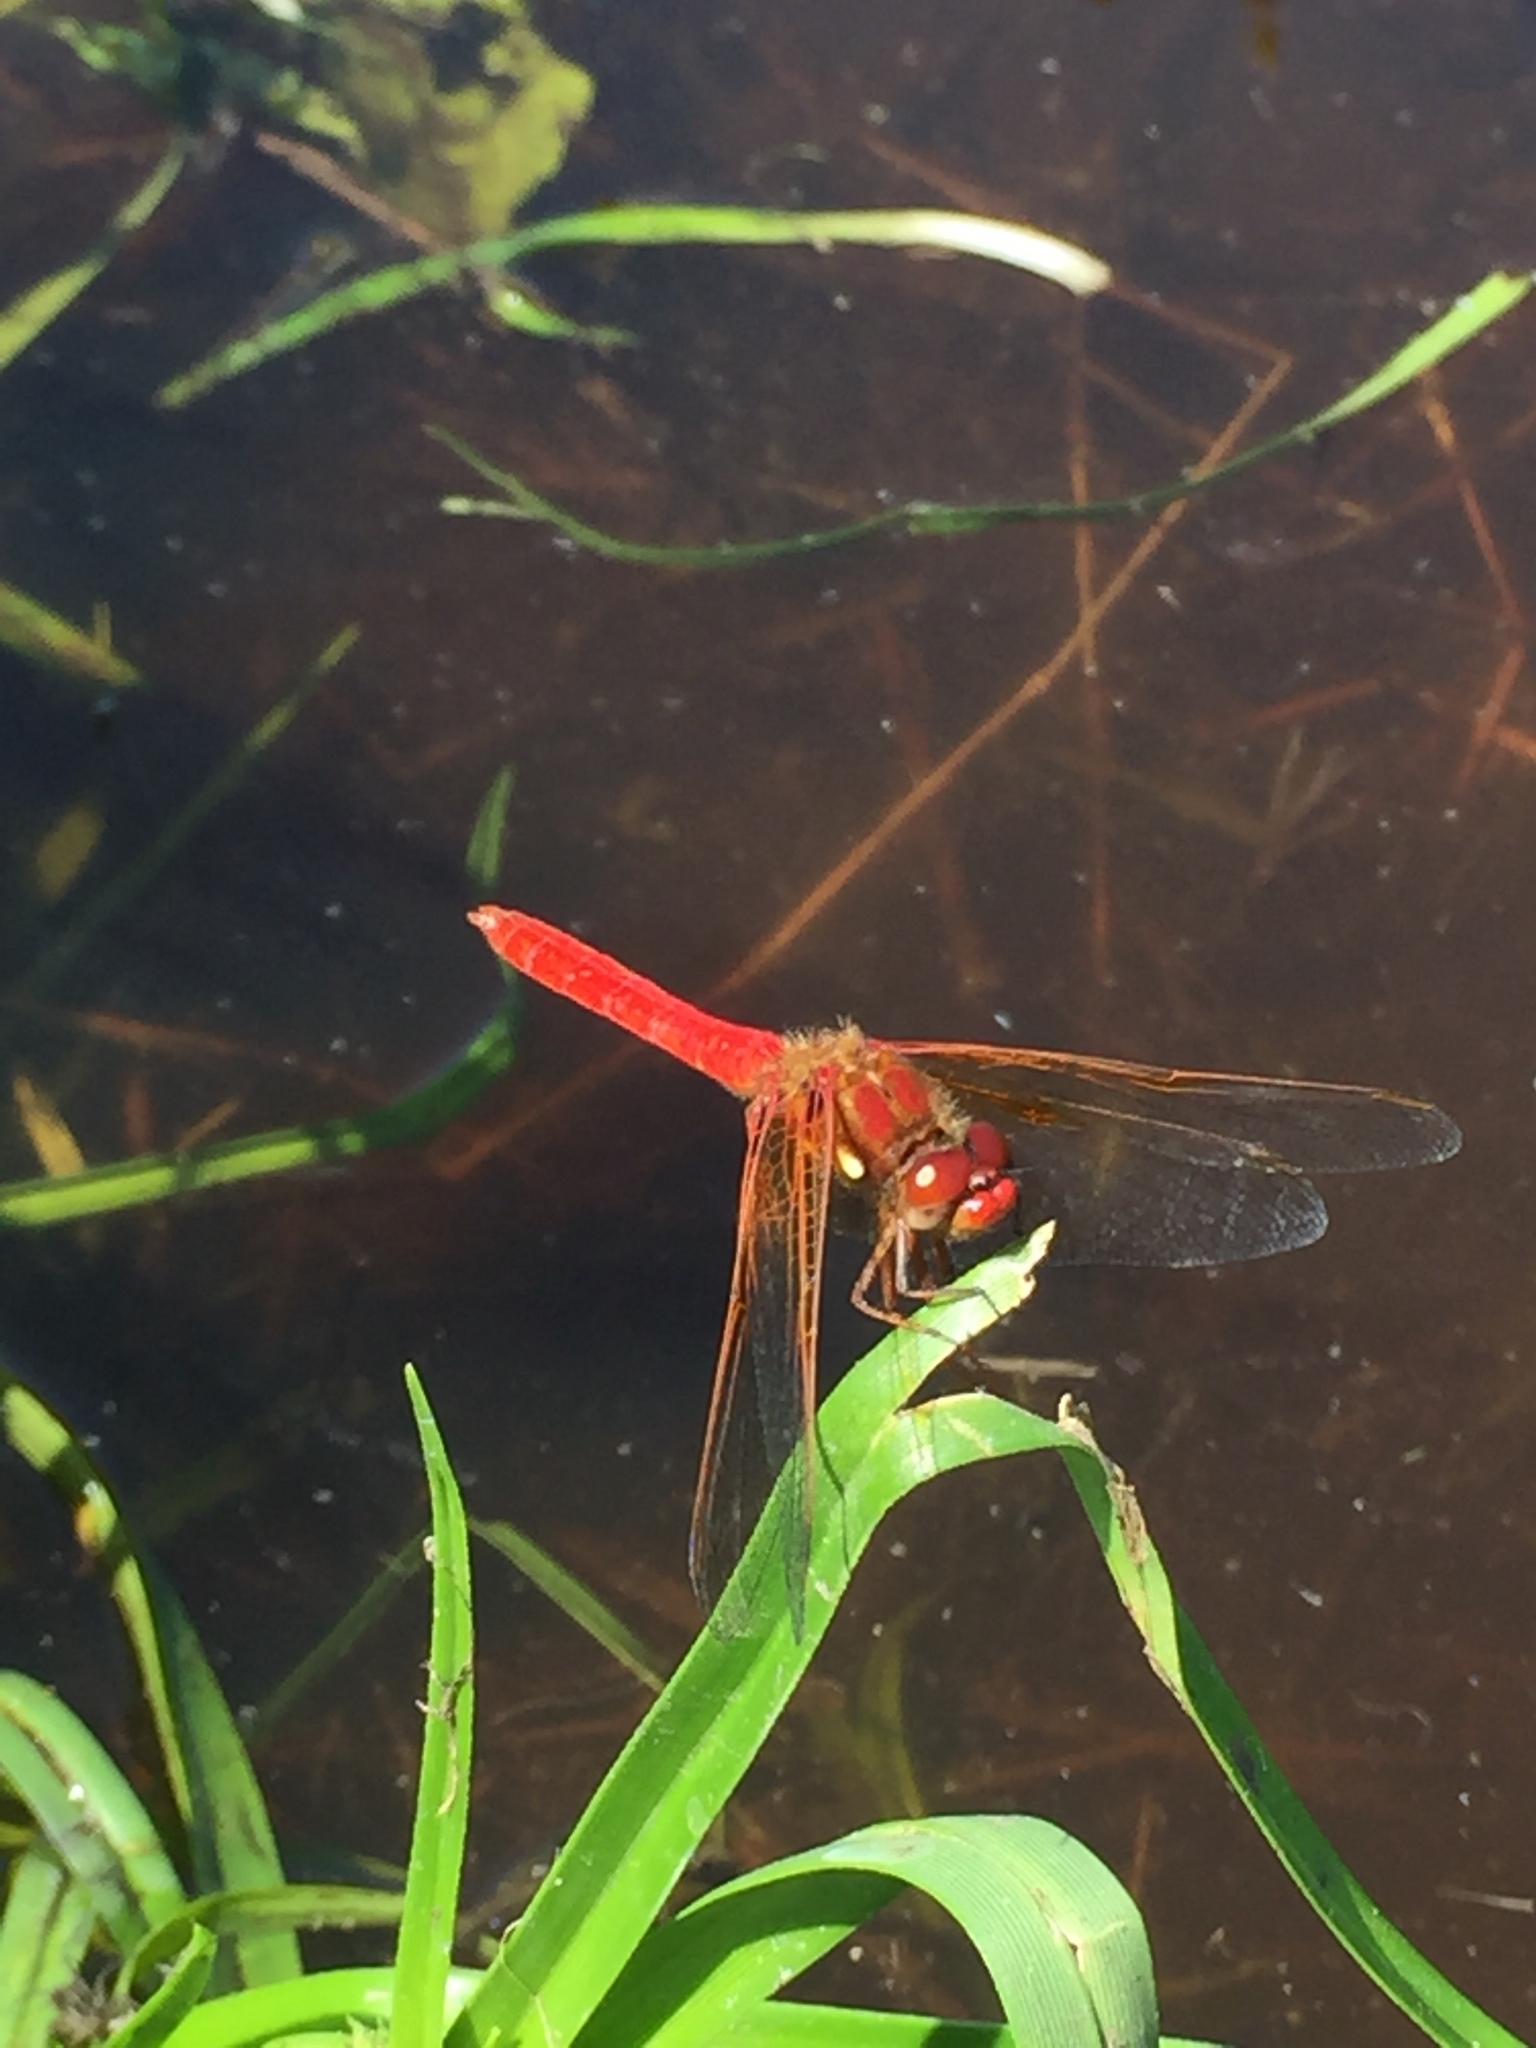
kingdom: Animalia
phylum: Arthropoda
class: Insecta
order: Odonata
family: Libellulidae
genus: Sympetrum
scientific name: Sympetrum illotum
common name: Cardinal meadowhawk
